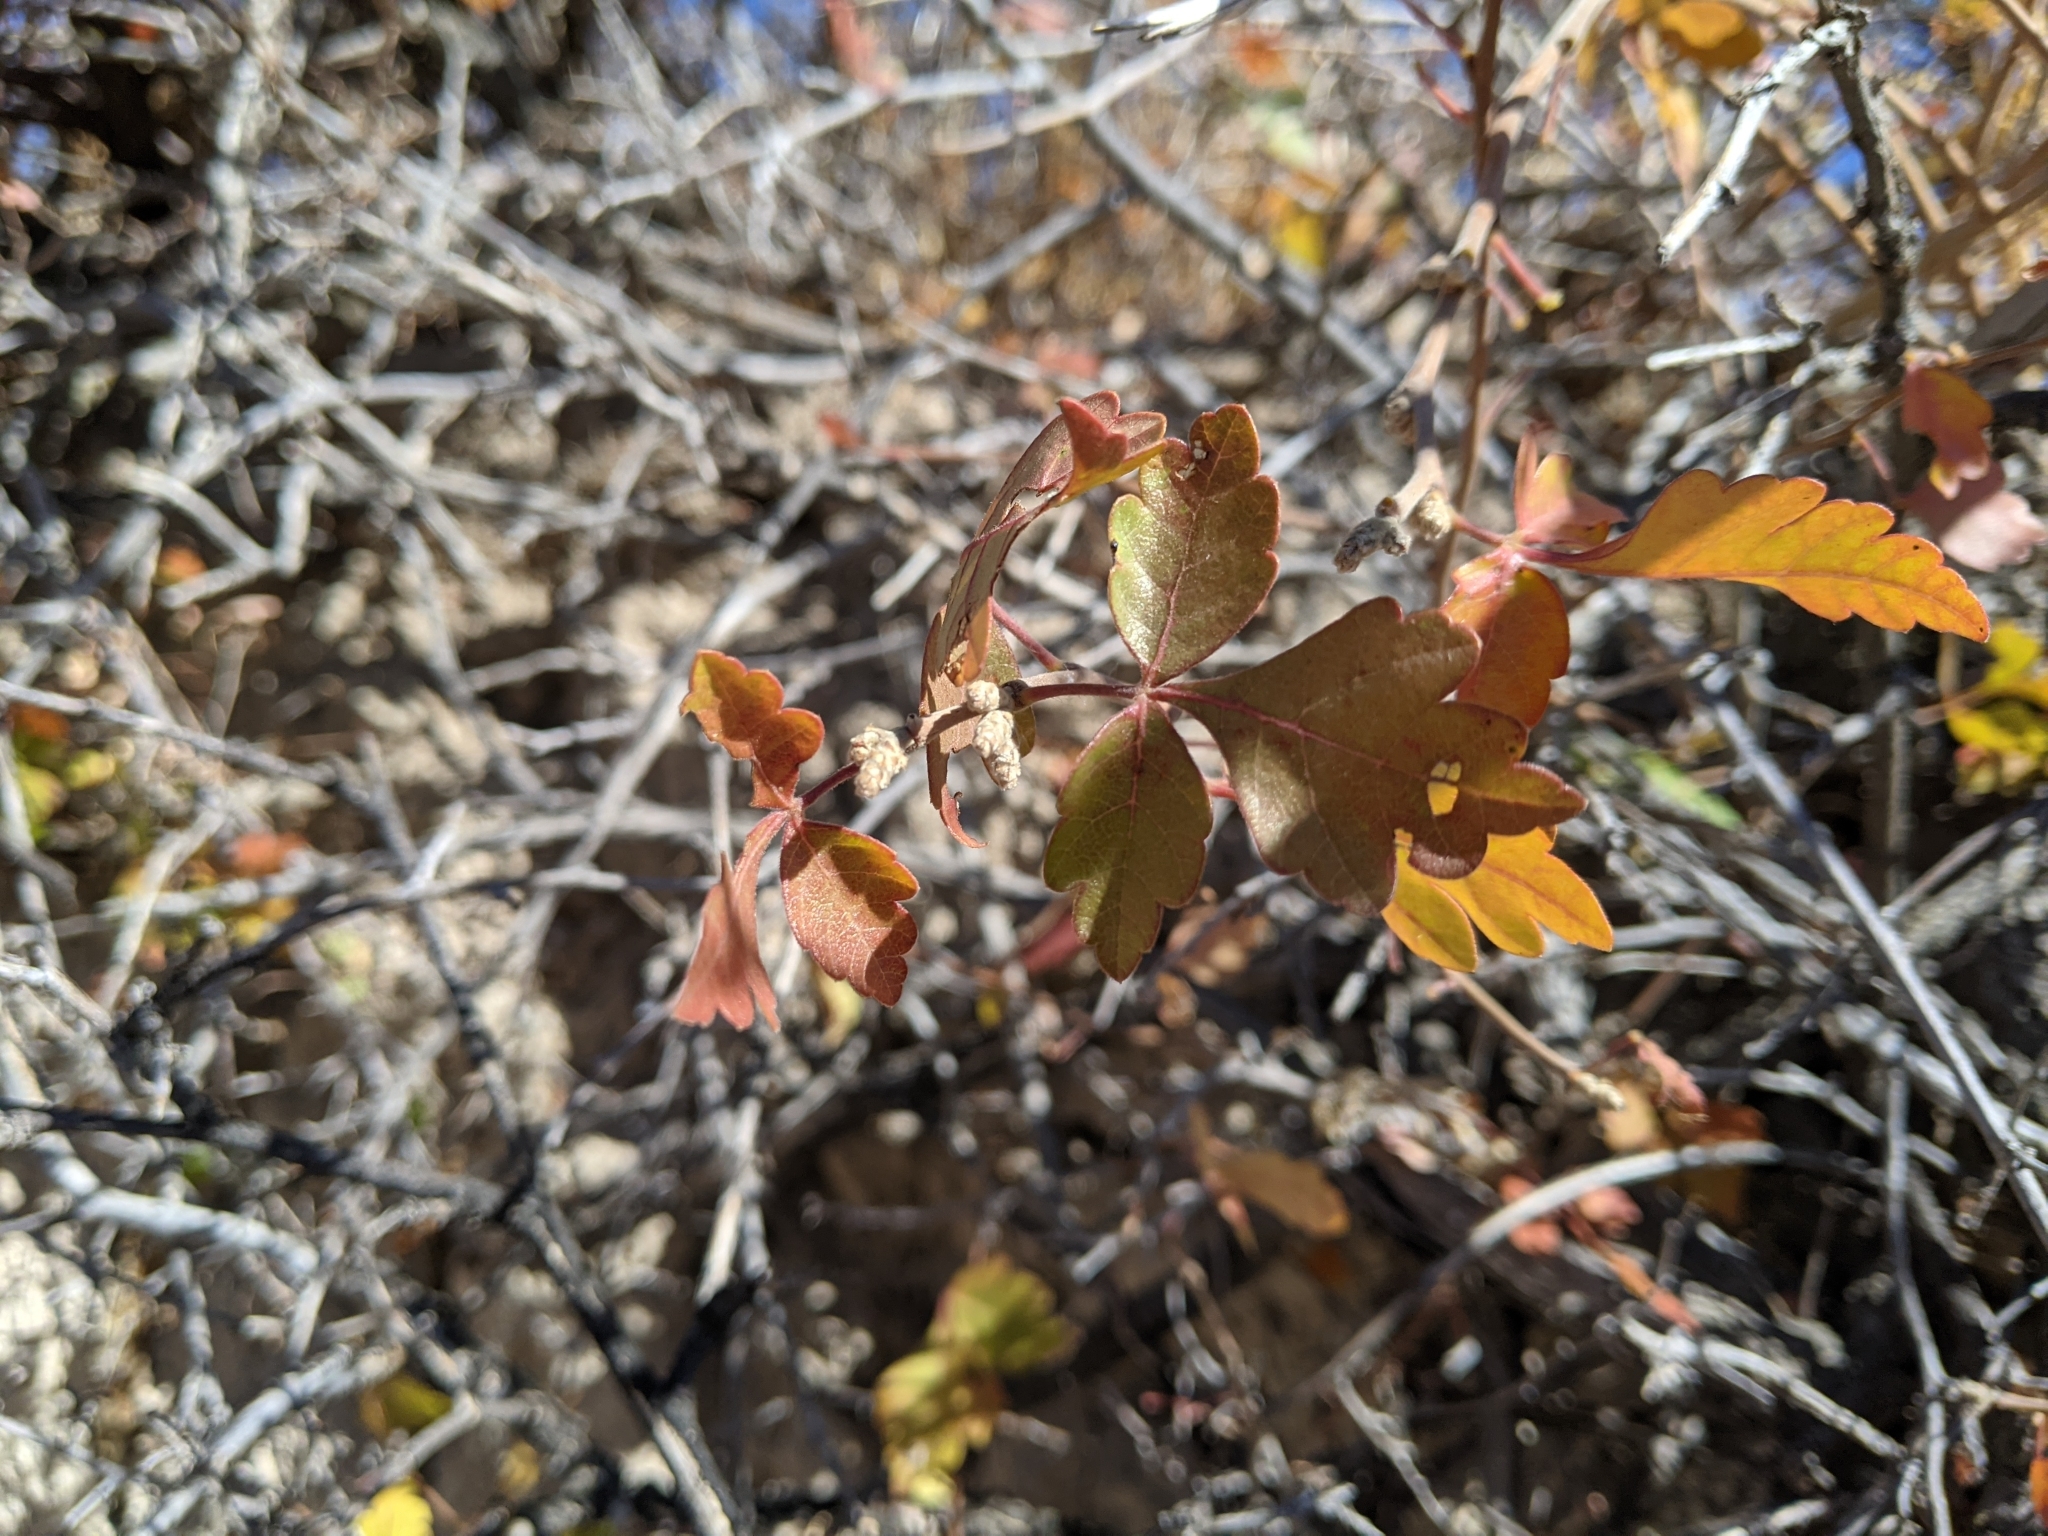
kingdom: Plantae
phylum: Tracheophyta
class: Magnoliopsida
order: Sapindales
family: Anacardiaceae
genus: Rhus
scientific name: Rhus trilobata
